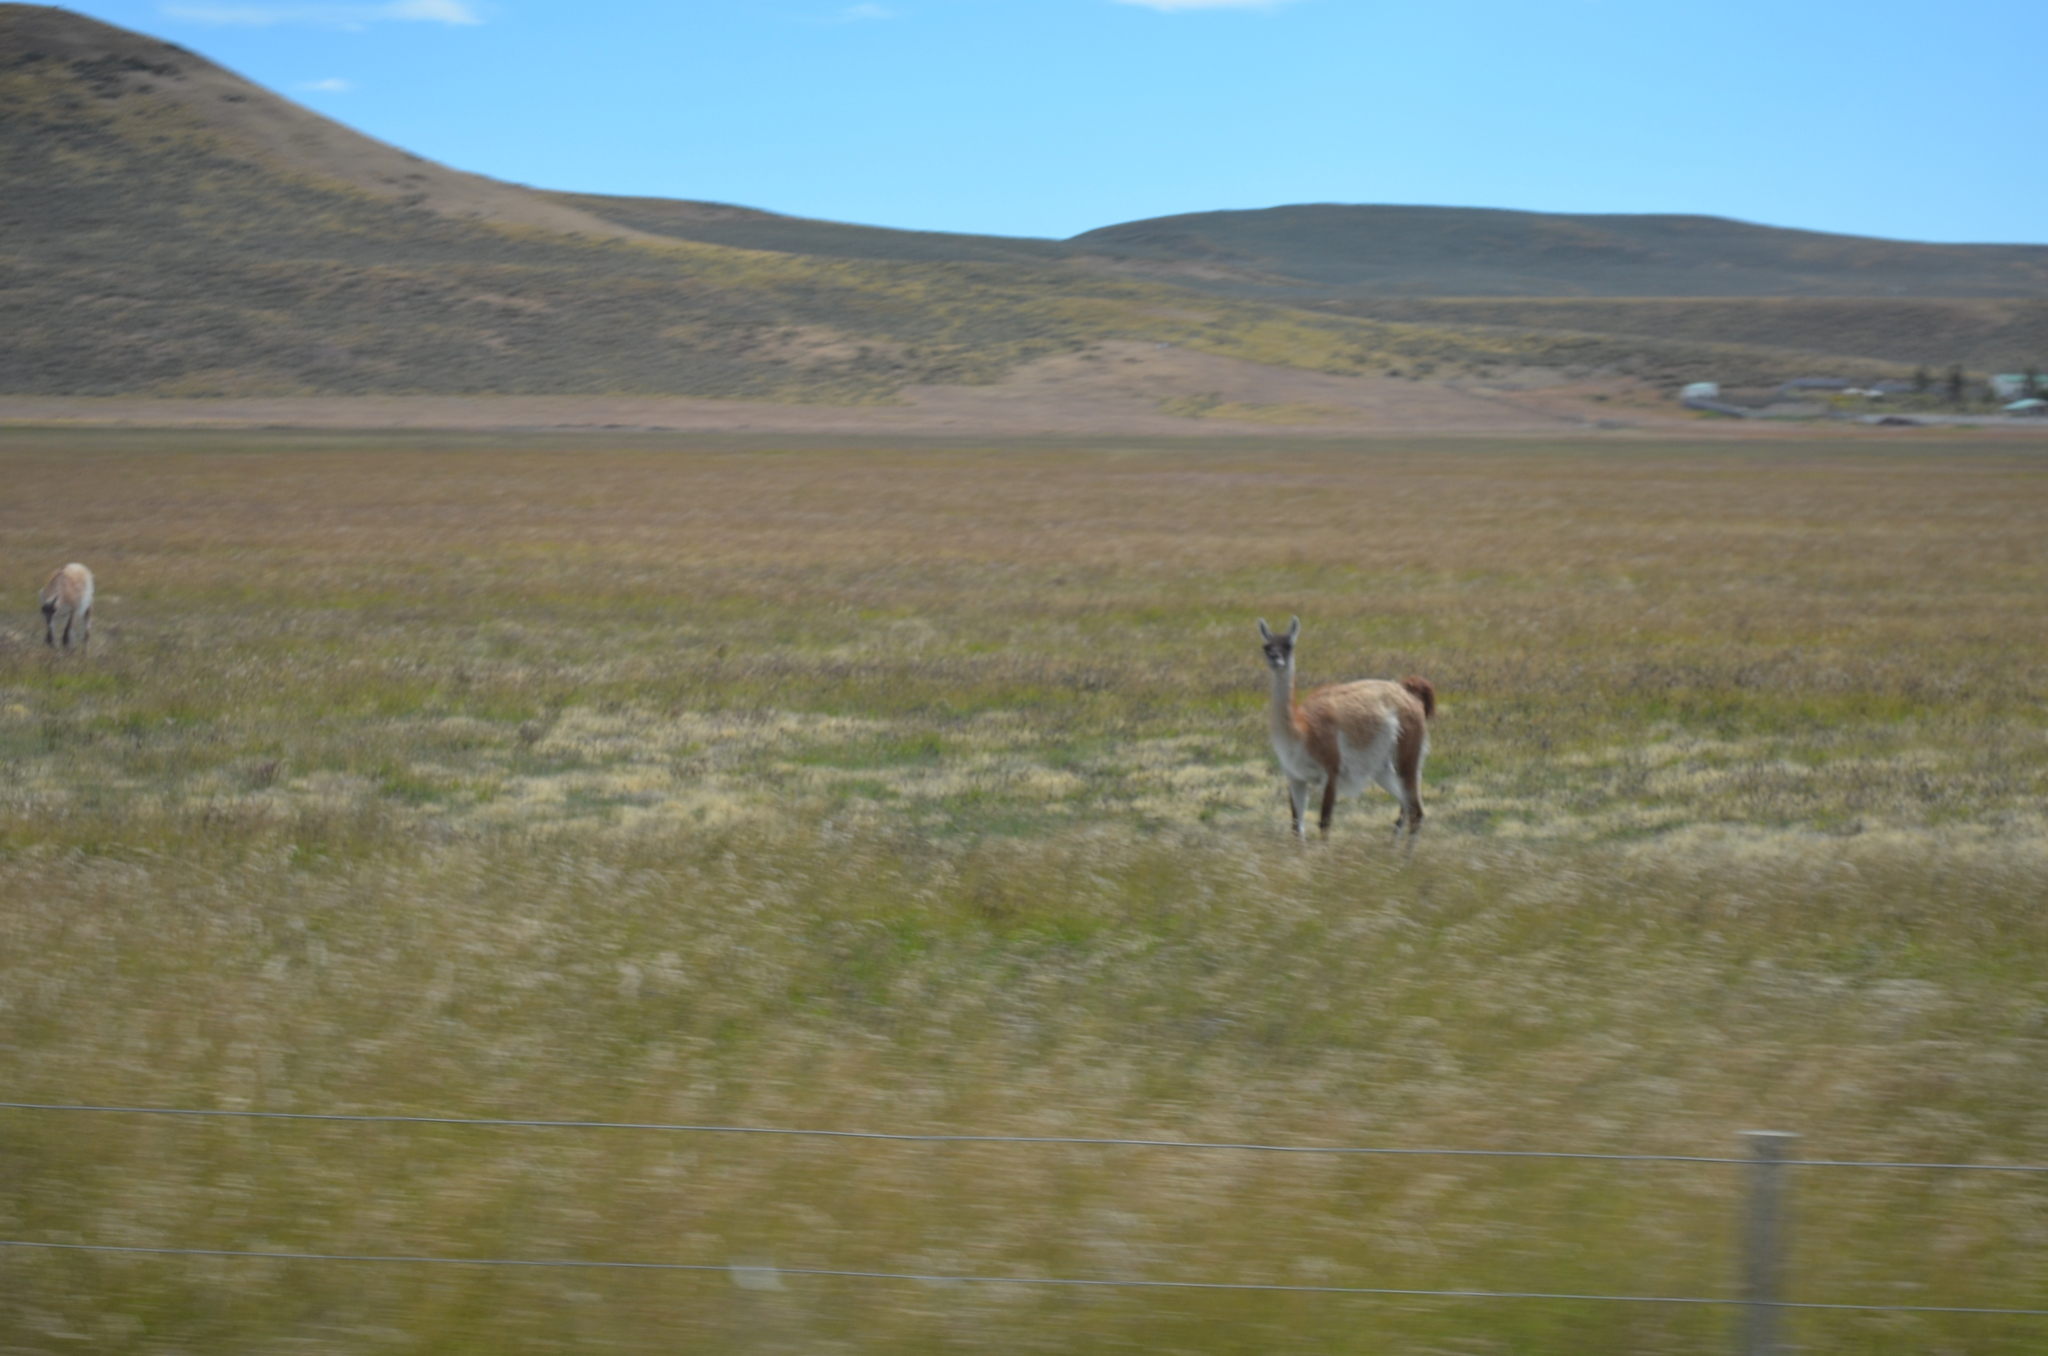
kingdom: Animalia
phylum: Chordata
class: Mammalia
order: Artiodactyla
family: Camelidae
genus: Lama
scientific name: Lama glama
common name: Llama
